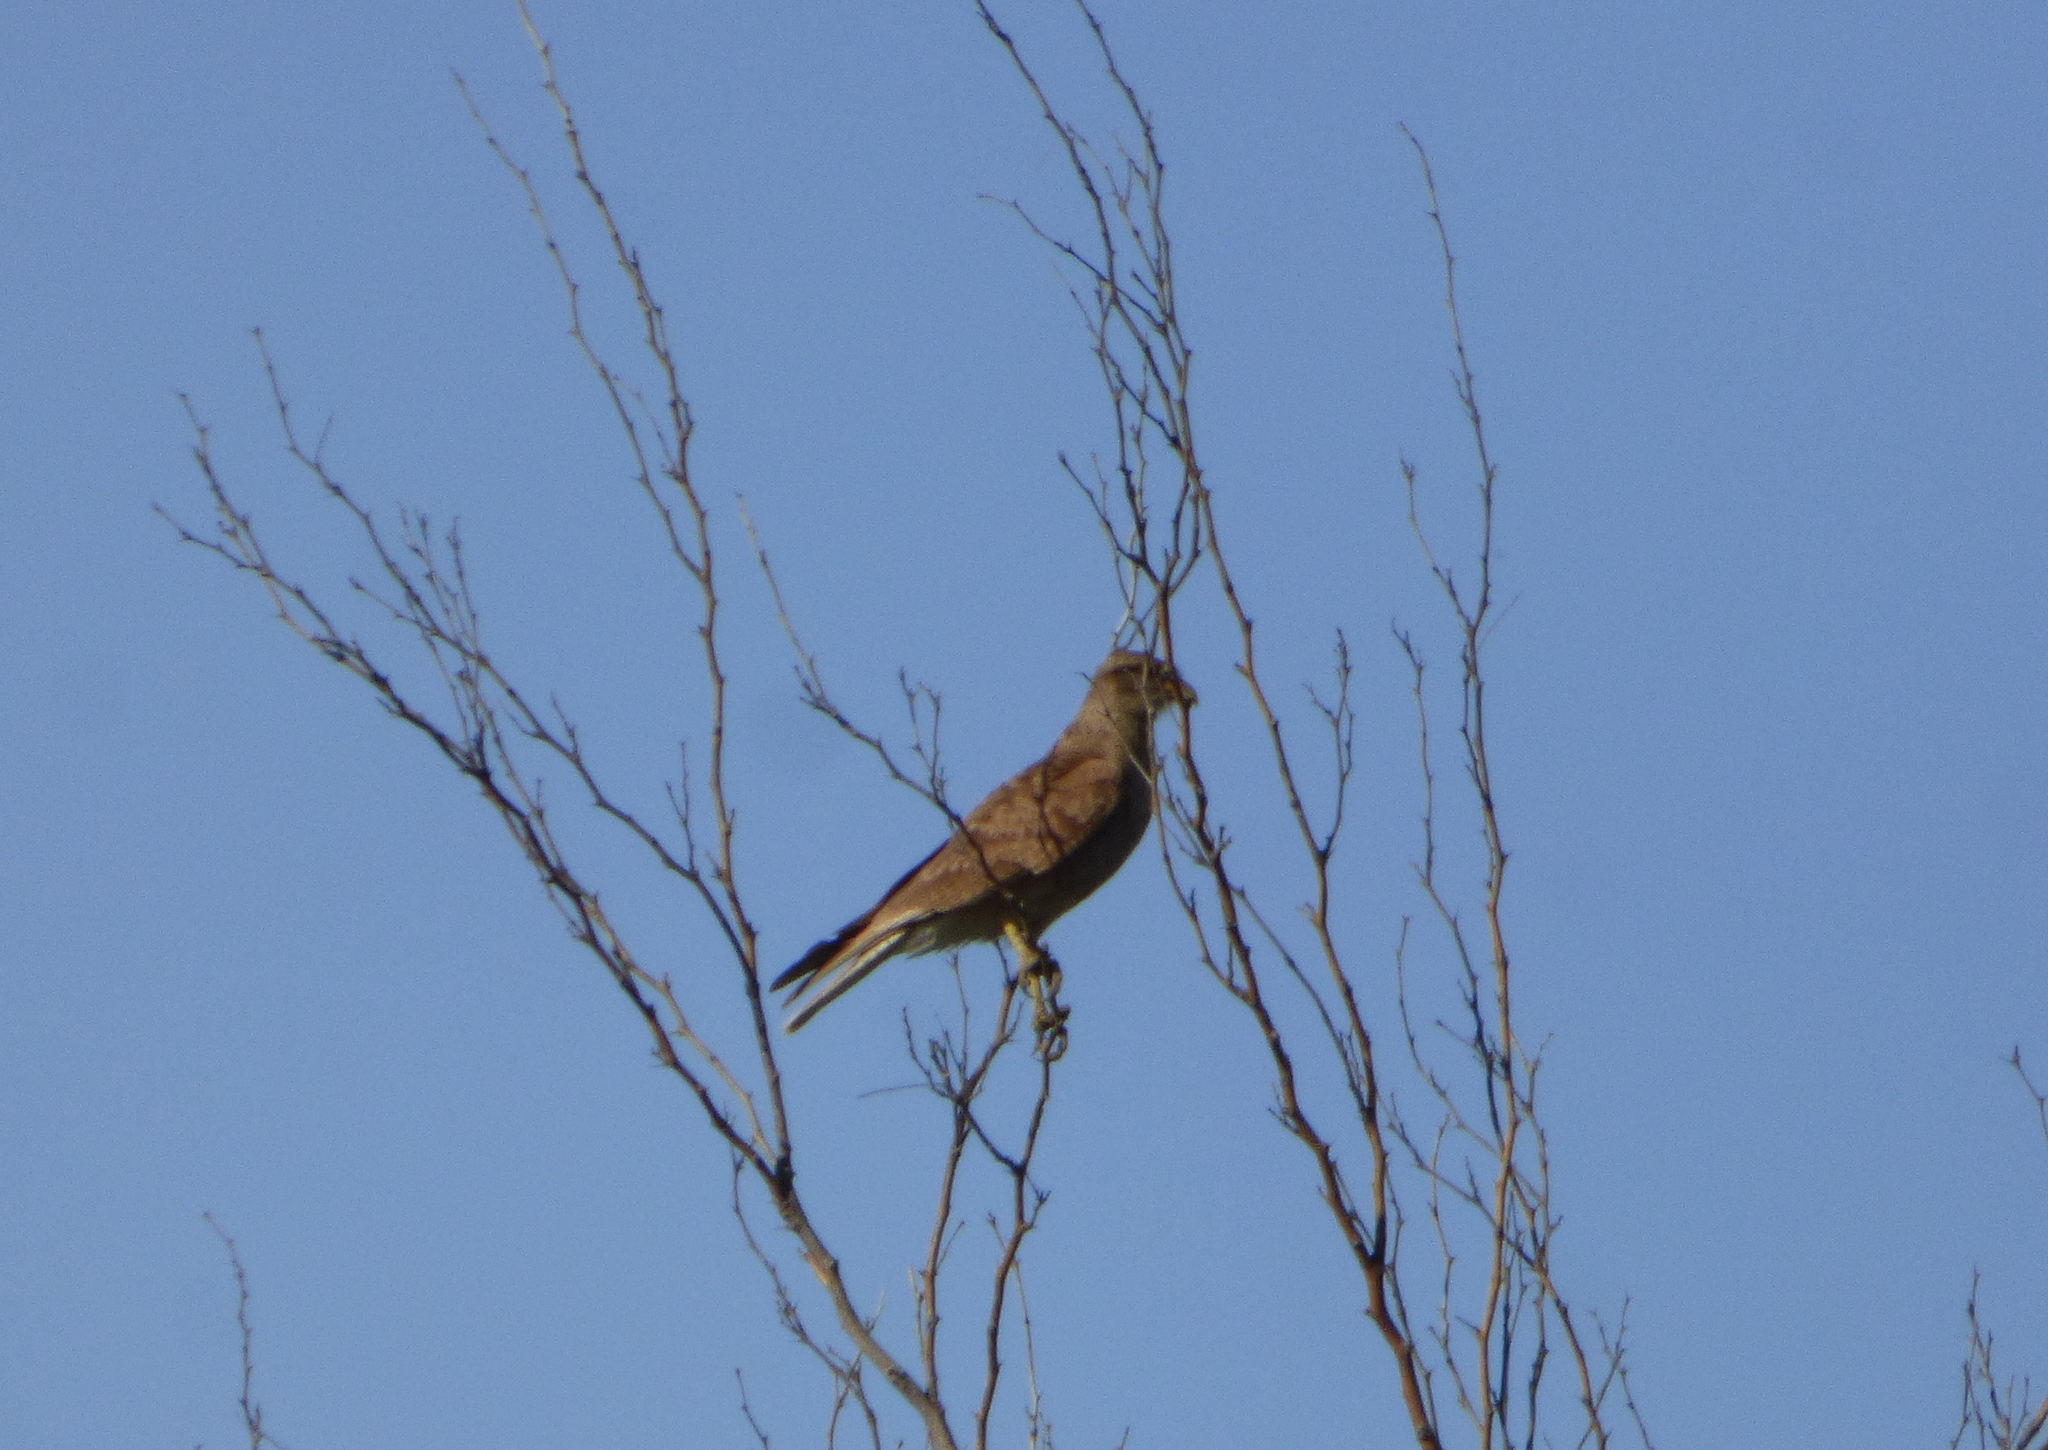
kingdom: Animalia
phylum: Chordata
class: Aves
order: Falconiformes
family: Falconidae
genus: Daptrius
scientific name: Daptrius
